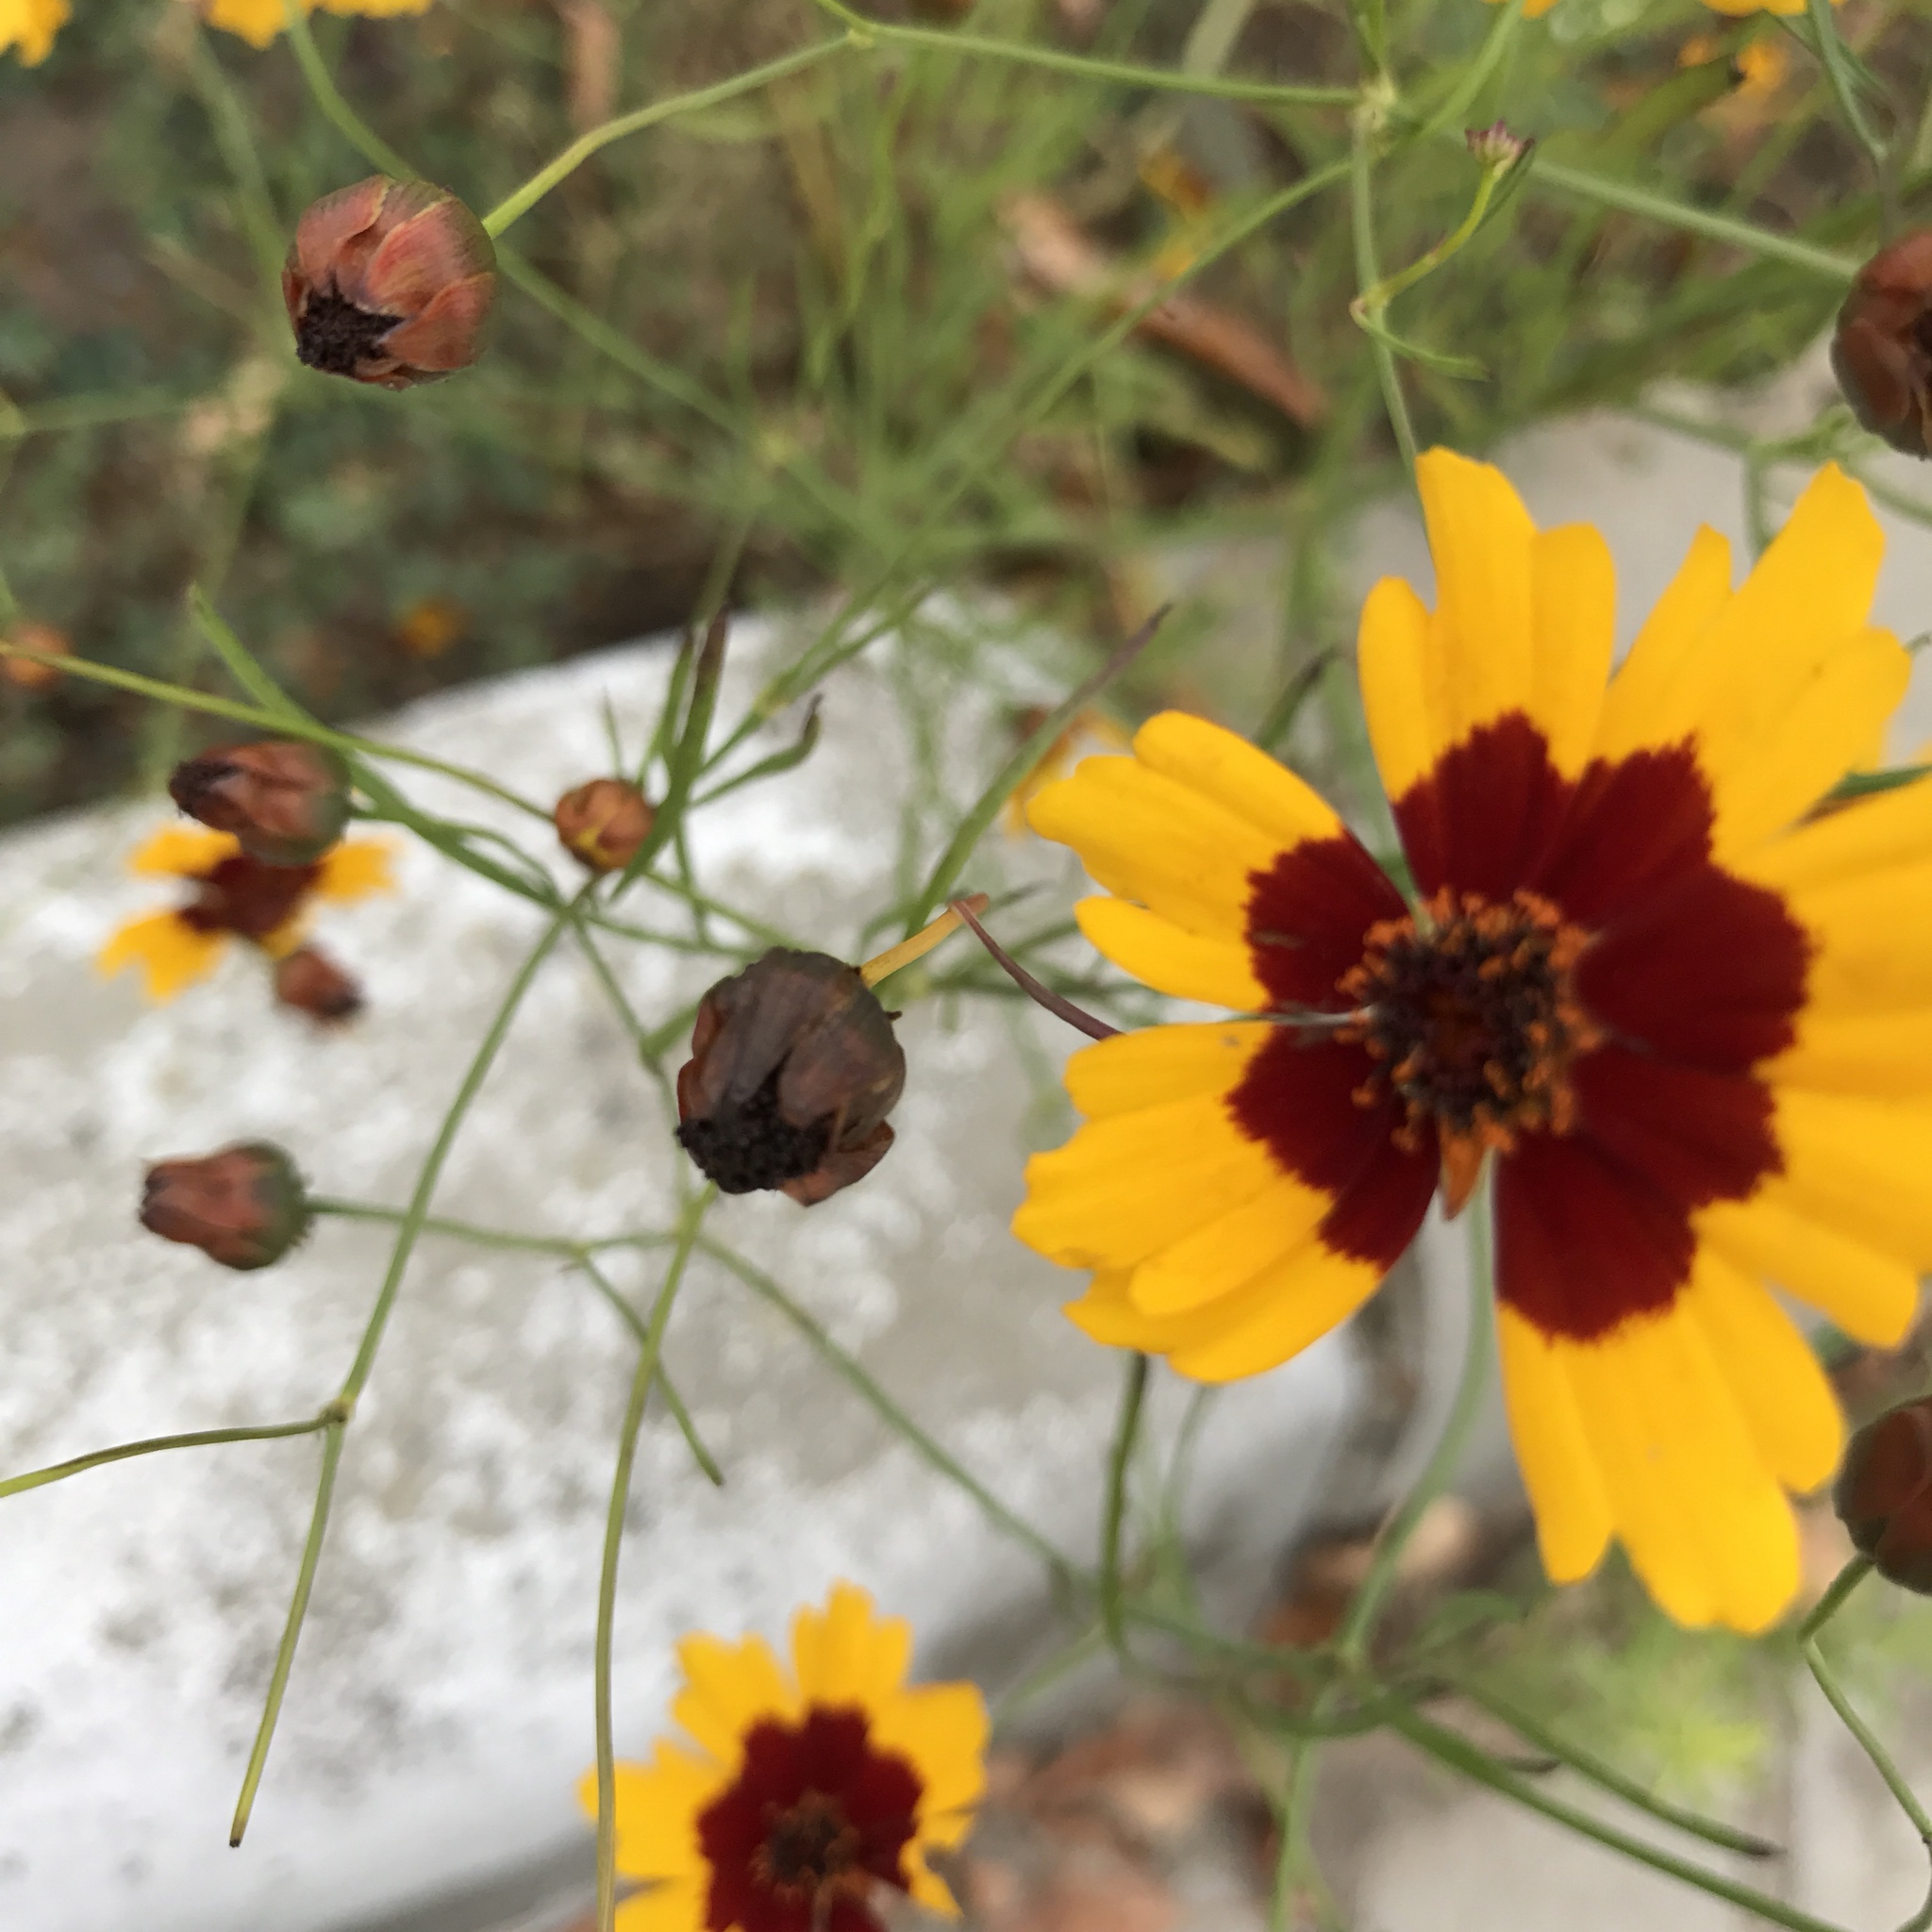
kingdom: Plantae
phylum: Tracheophyta
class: Magnoliopsida
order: Asterales
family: Asteraceae
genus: Coreopsis
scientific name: Coreopsis tinctoria
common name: Garden tickseed
